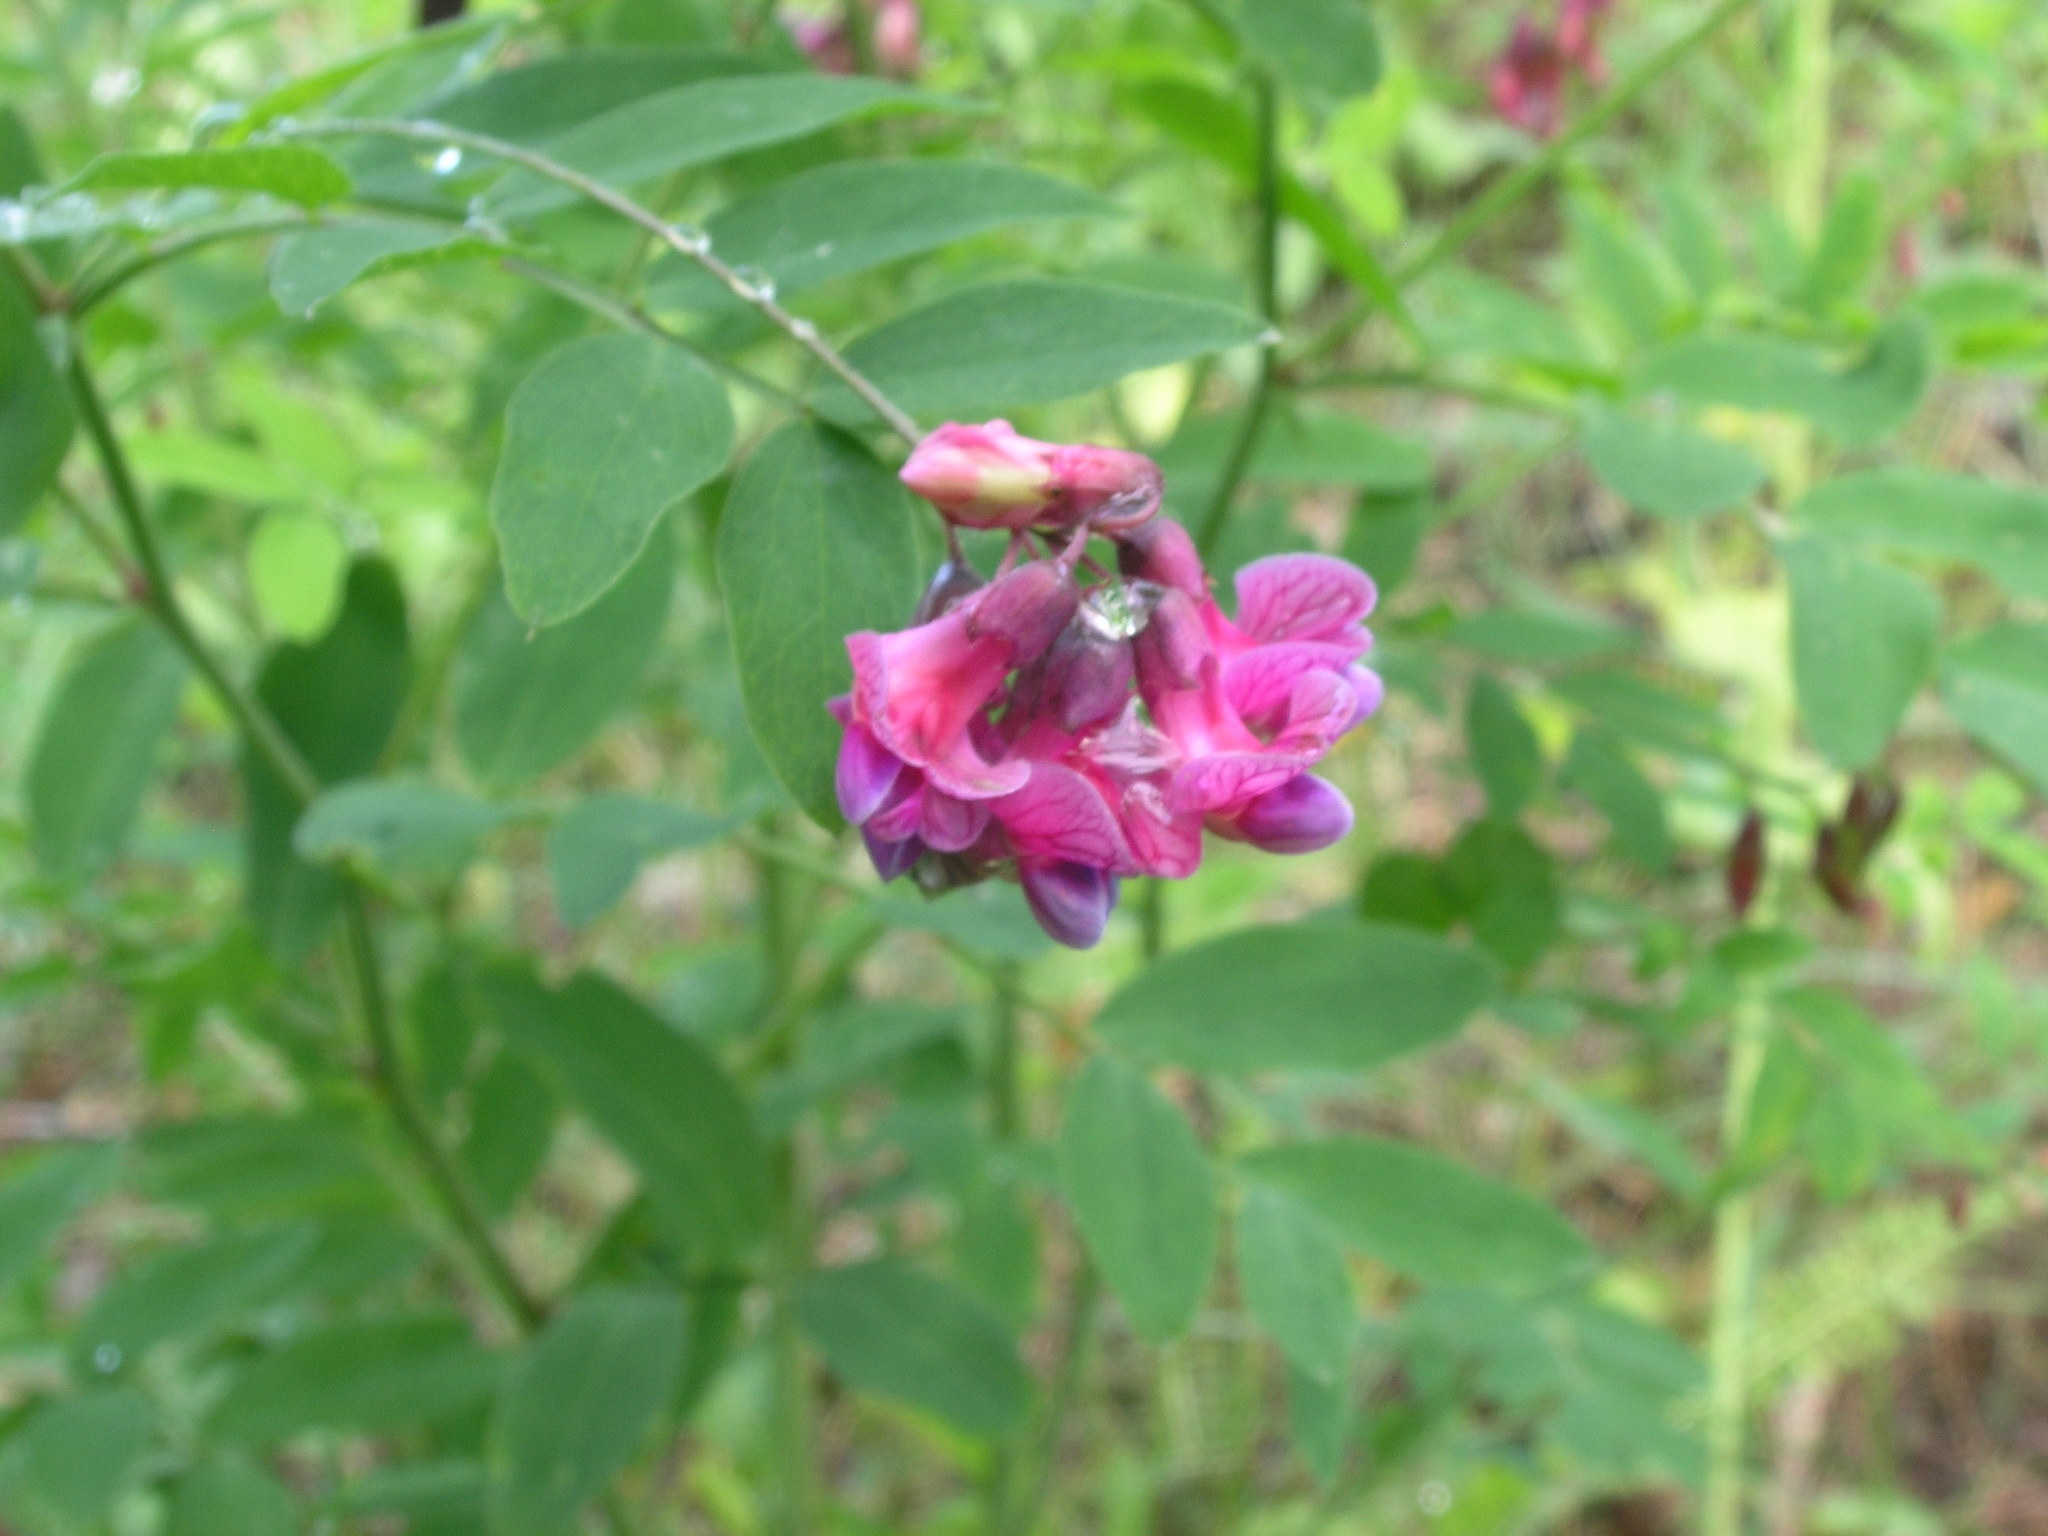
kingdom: Plantae
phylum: Tracheophyta
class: Magnoliopsida
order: Fabales
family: Fabaceae
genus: Lathyrus
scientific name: Lathyrus niger
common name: Black pea
